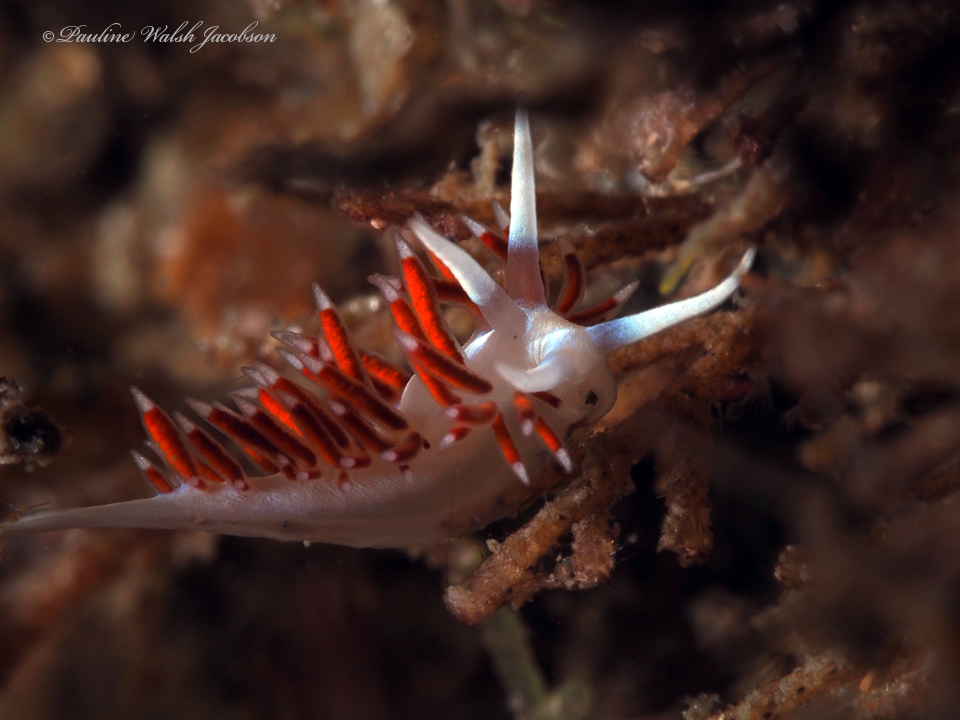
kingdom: Animalia
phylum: Mollusca
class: Gastropoda
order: Nudibranchia
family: Flabellinidae
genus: Flabellina
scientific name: Flabellina dushia
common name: Dushia flabellina
